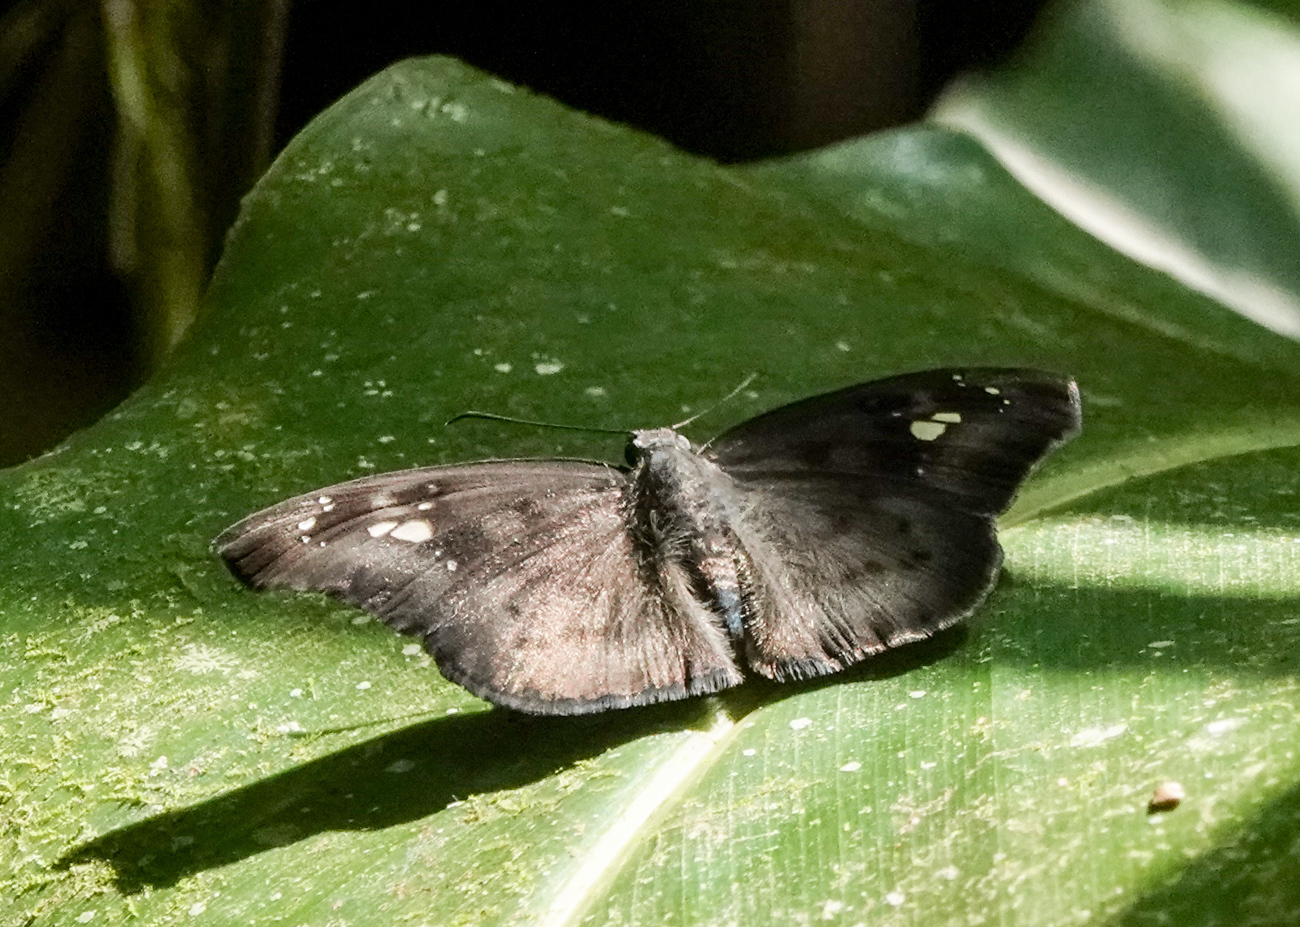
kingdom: Animalia
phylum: Arthropoda
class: Insecta
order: Lepidoptera
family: Hesperiidae
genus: Tagiades
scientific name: Tagiades japetus
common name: Pied flat
